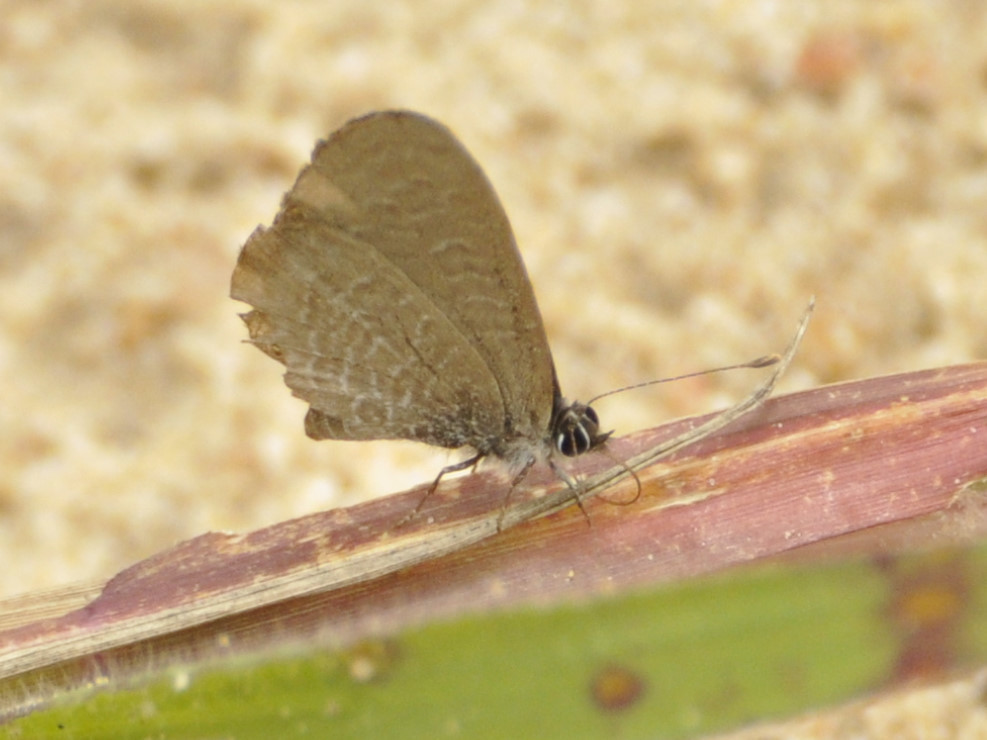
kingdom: Animalia
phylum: Arthropoda
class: Insecta
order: Lepidoptera
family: Lycaenidae
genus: Pseudonacaduba
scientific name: Pseudonacaduba sichela
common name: African line blue
